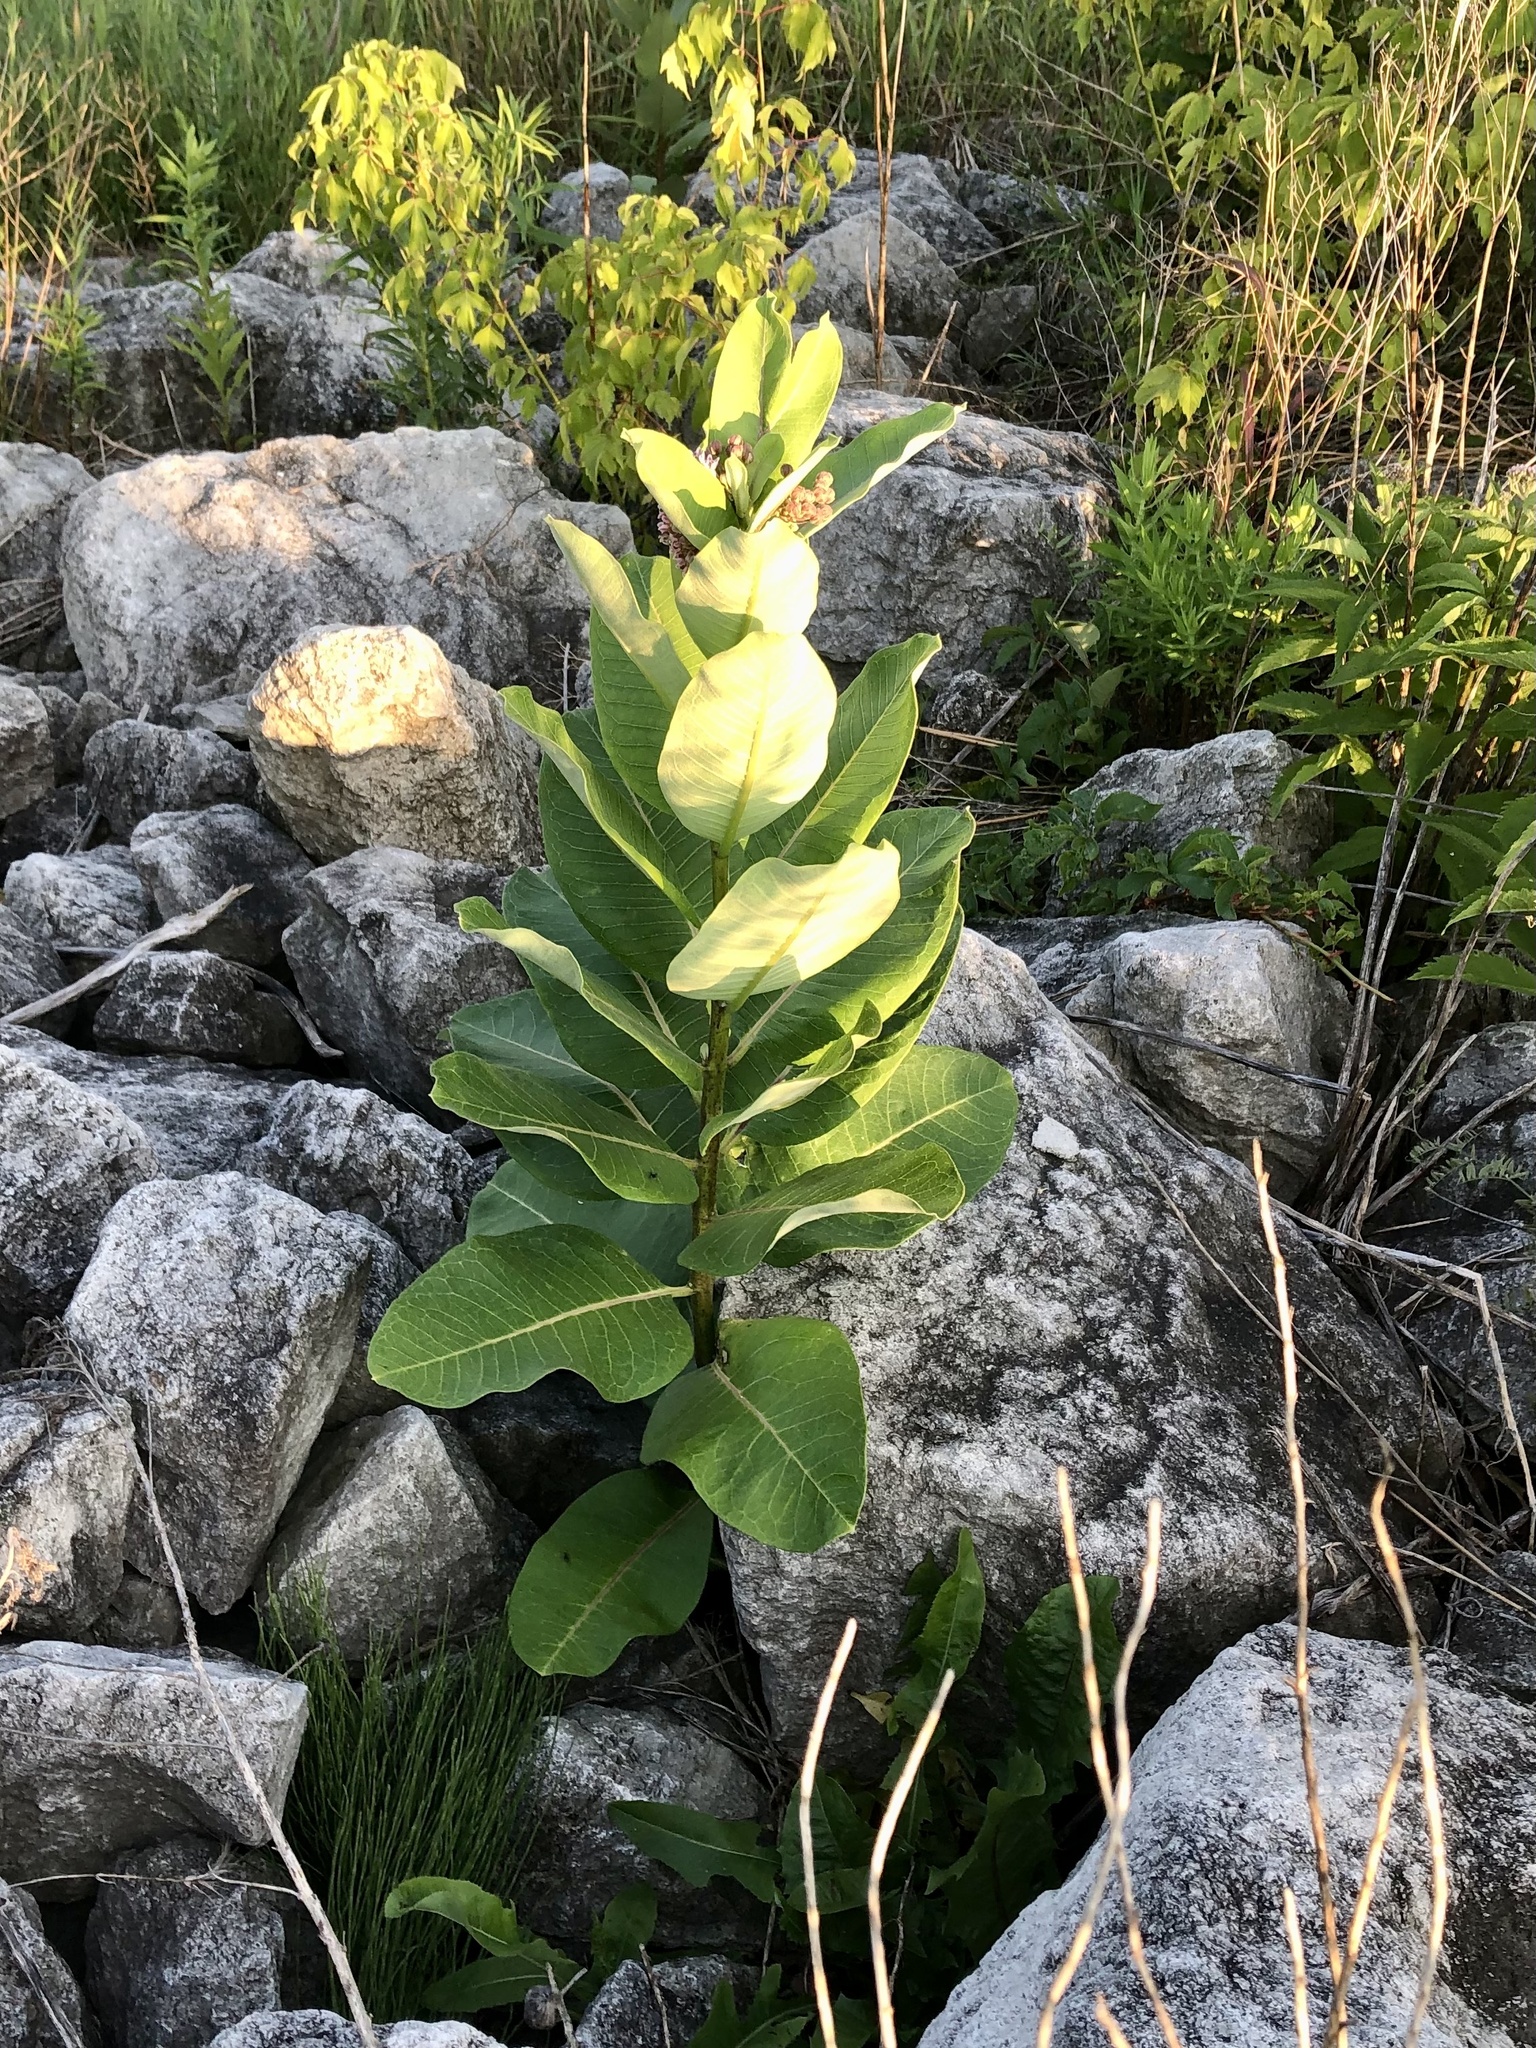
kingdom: Plantae
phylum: Tracheophyta
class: Magnoliopsida
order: Gentianales
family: Apocynaceae
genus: Asclepias
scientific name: Asclepias syriaca
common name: Common milkweed
